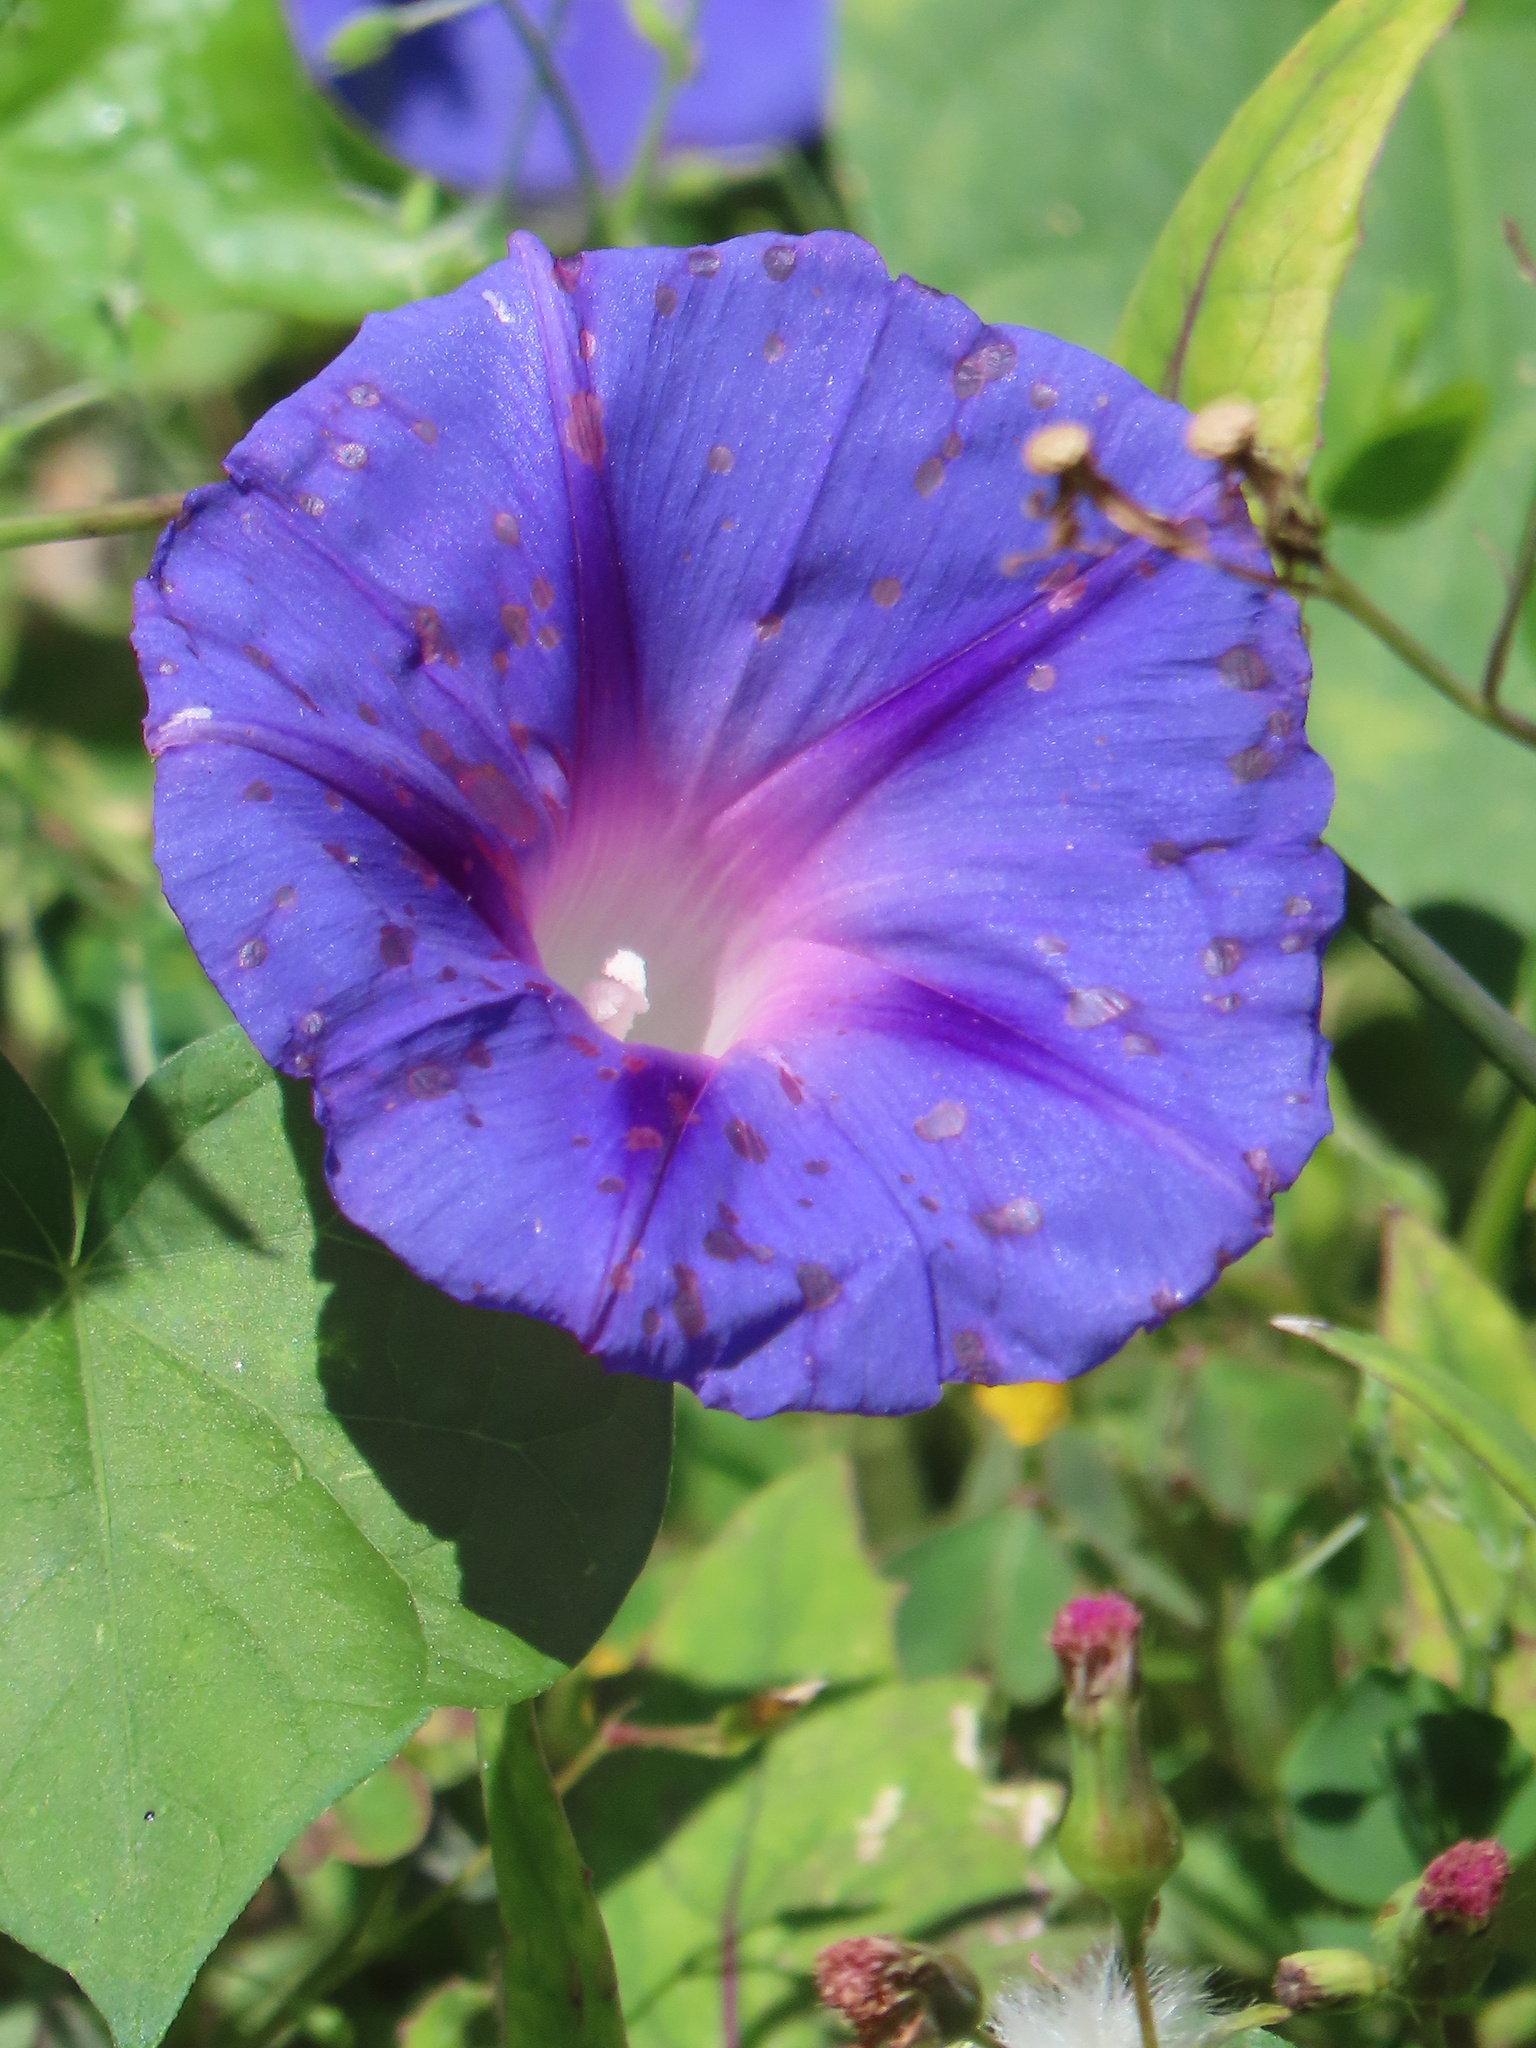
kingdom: Plantae
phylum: Tracheophyta
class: Magnoliopsida
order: Solanales
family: Convolvulaceae
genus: Ipomoea
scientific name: Ipomoea purpurea
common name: Common morning-glory
